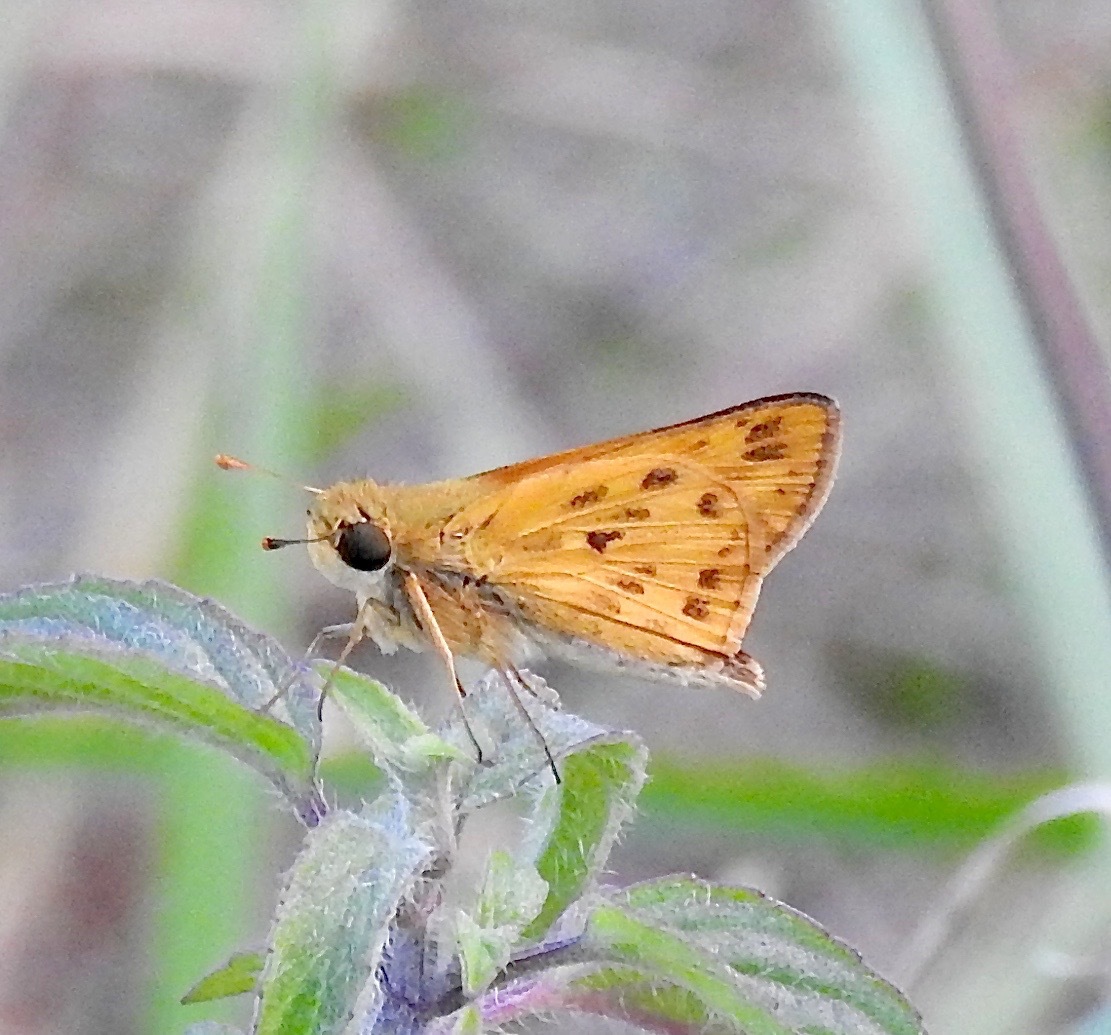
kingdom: Animalia
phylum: Arthropoda
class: Insecta
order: Lepidoptera
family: Hesperiidae
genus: Hylephila
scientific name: Hylephila phyleus
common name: Fiery skipper
